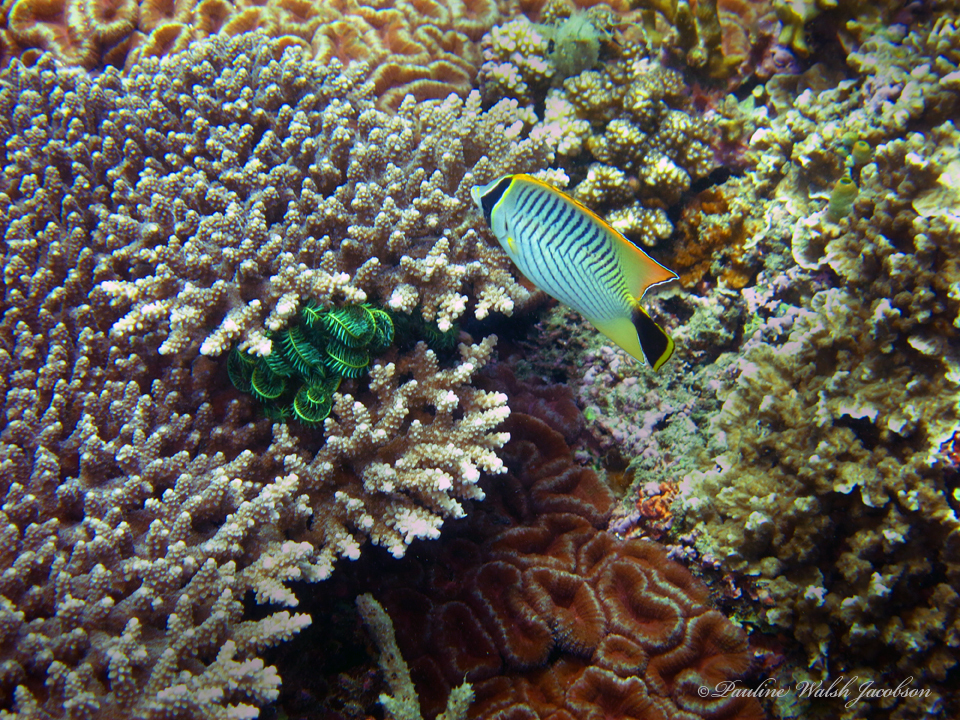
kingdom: Animalia
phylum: Chordata
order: Perciformes
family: Chaetodontidae
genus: Chaetodon
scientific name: Chaetodon trifascialis
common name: Chevroned butterflyfish
